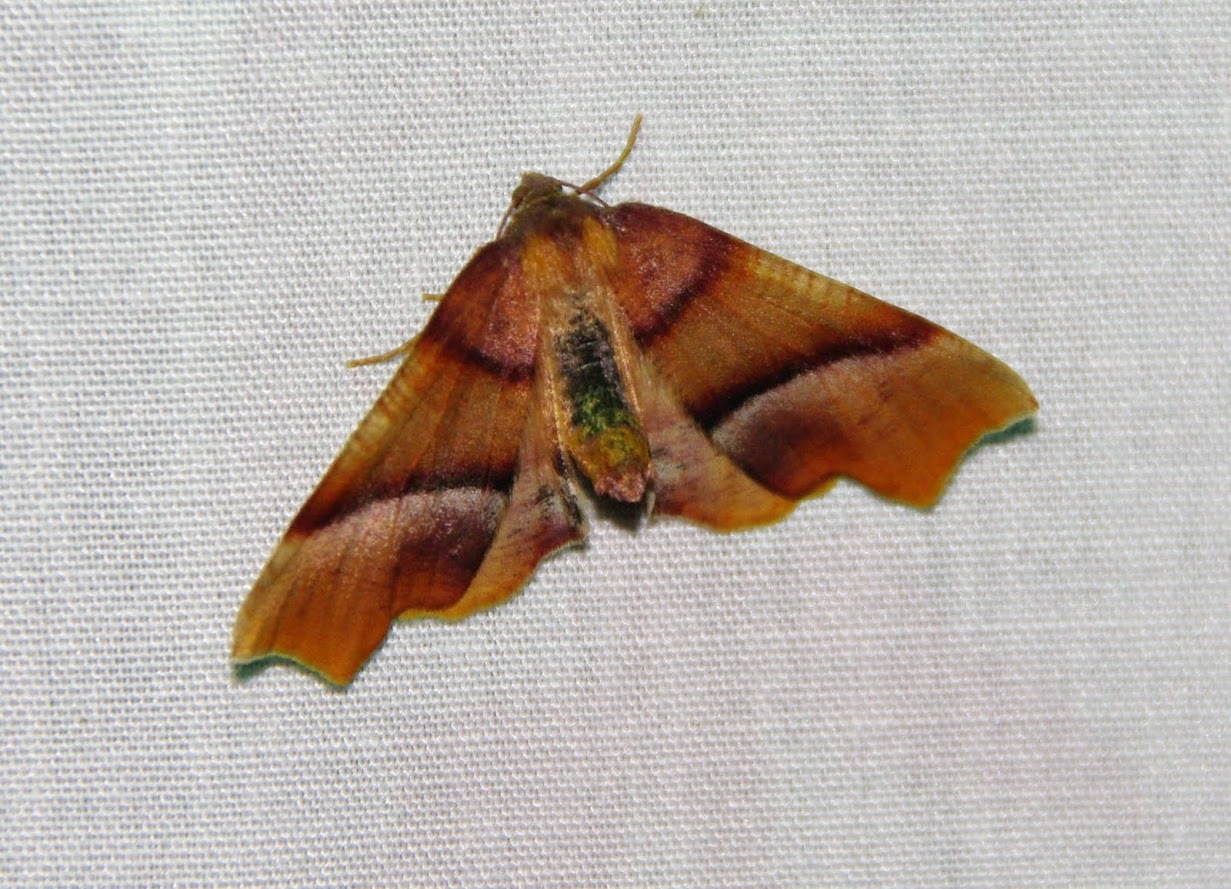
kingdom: Animalia
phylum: Arthropoda
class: Insecta
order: Lepidoptera
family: Geometridae
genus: Plagodis
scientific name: Plagodis phlogosaria
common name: Straight-lined plagodis
